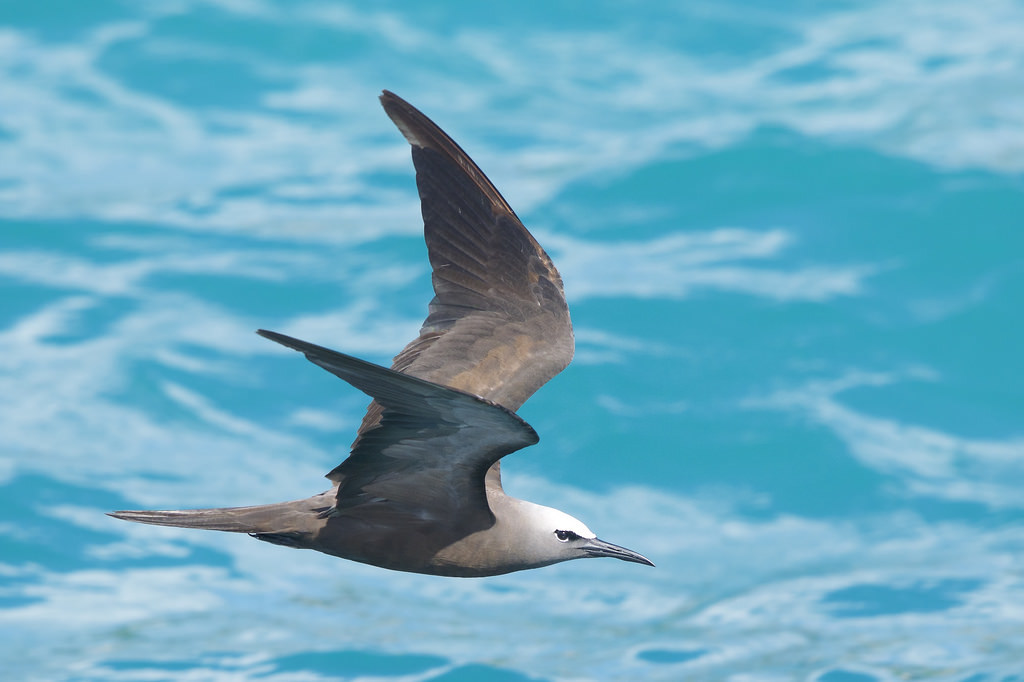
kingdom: Animalia
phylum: Chordata
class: Aves
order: Charadriiformes
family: Laridae
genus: Anous
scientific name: Anous stolidus
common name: Brown noddy
